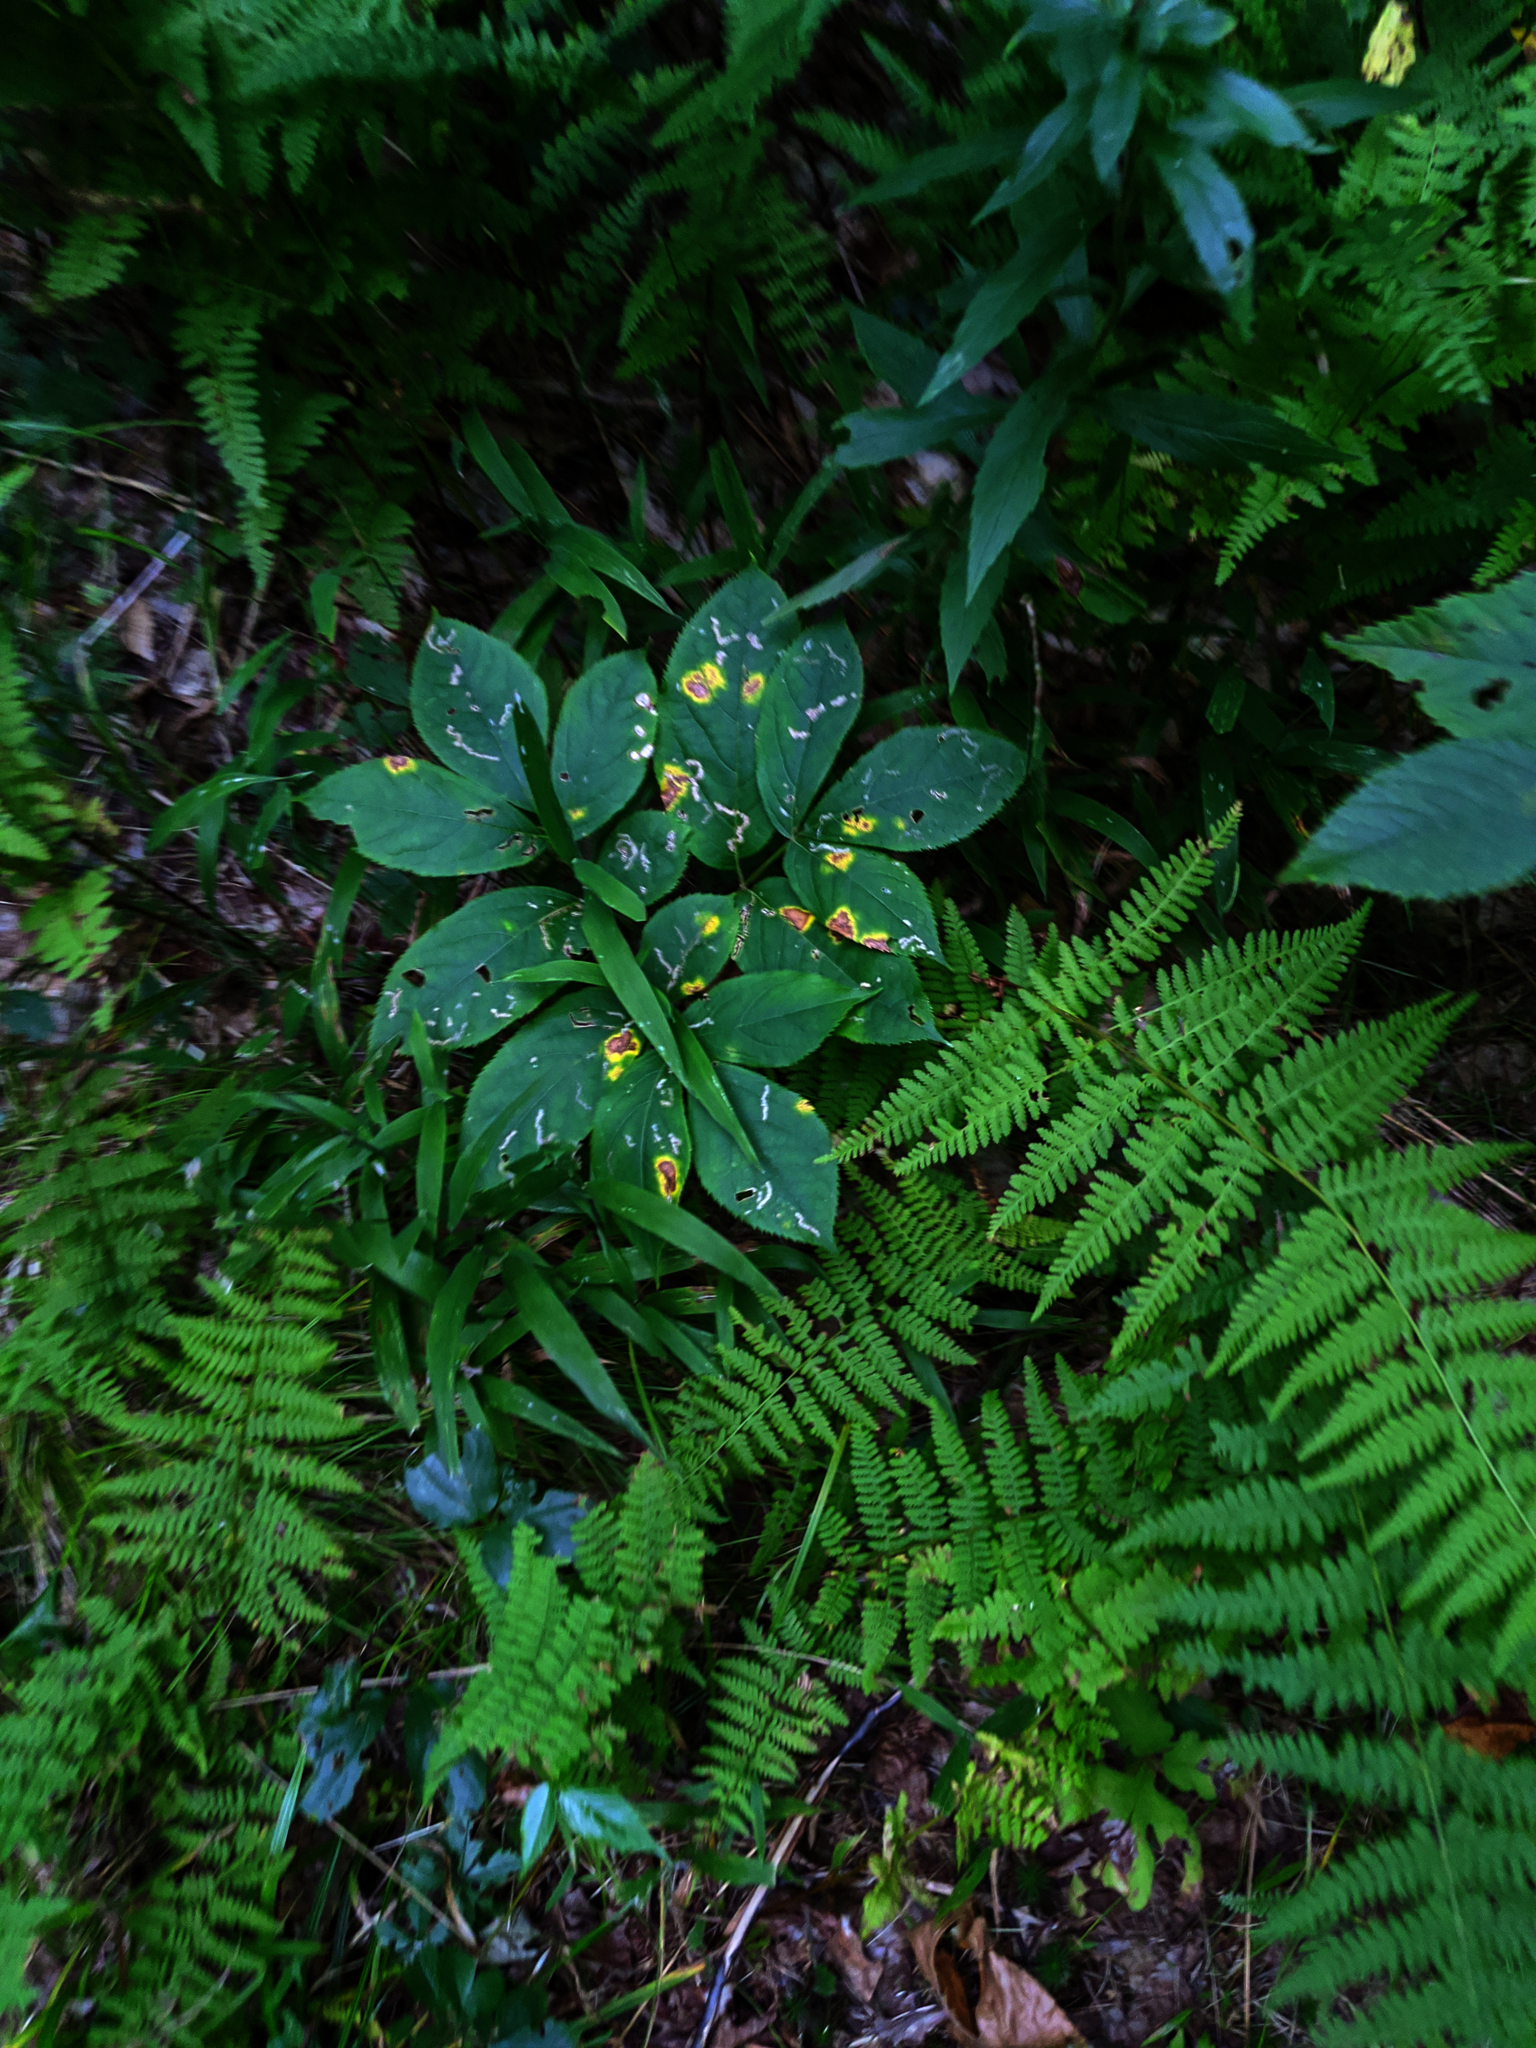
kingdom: Plantae
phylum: Tracheophyta
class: Magnoliopsida
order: Apiales
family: Araliaceae
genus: Aralia
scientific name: Aralia nudicaulis
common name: Wild sarsaparilla
